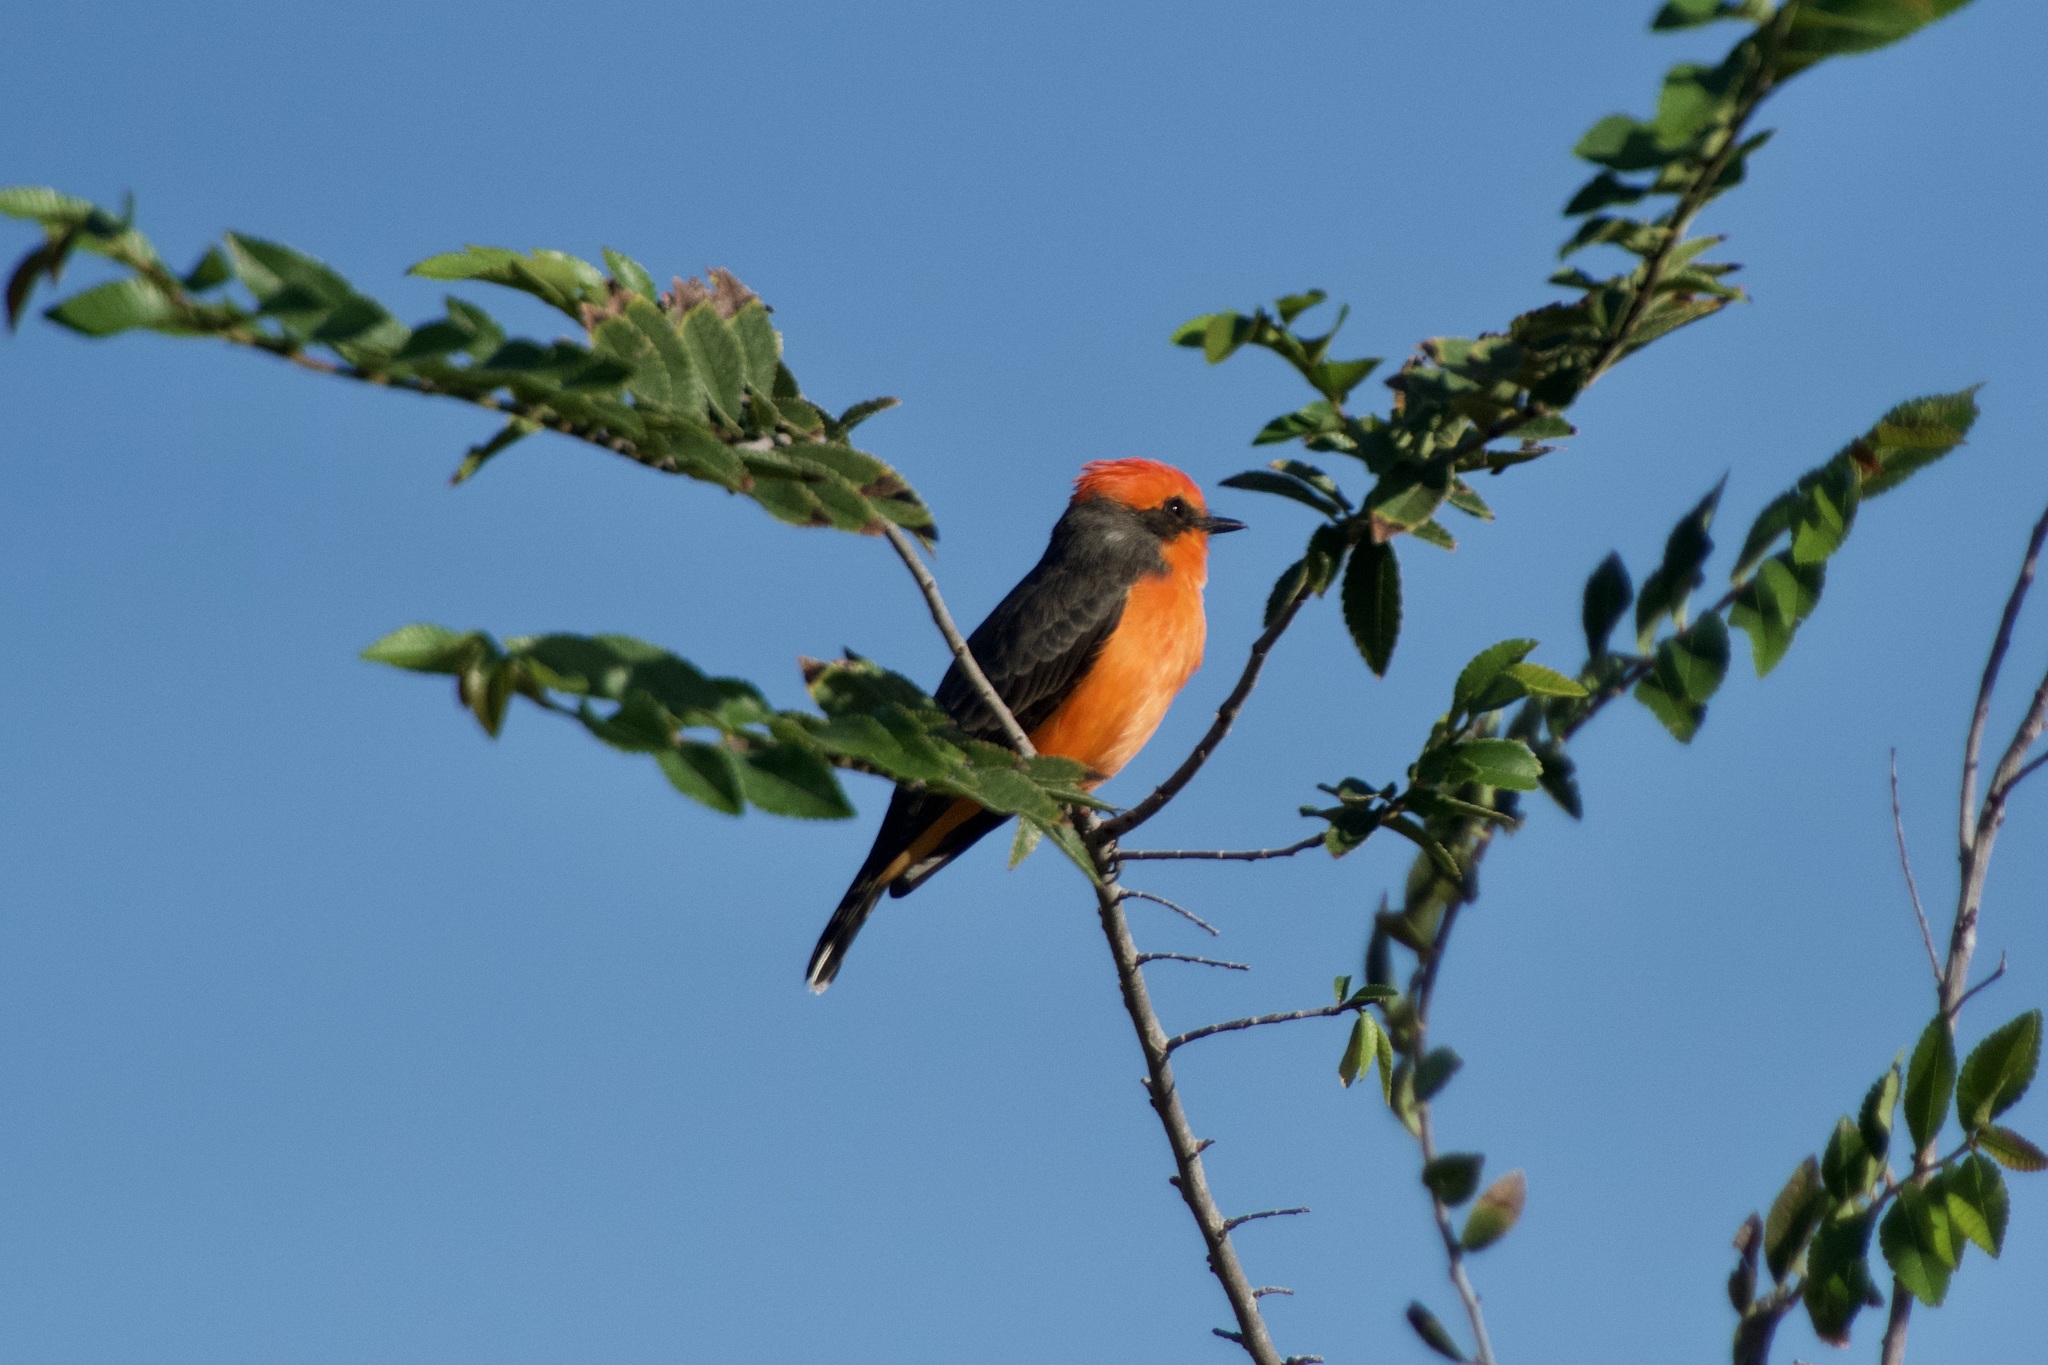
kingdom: Animalia
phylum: Chordata
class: Aves
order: Passeriformes
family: Tyrannidae
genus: Pyrocephalus
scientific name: Pyrocephalus rubinus
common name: Vermilion flycatcher
